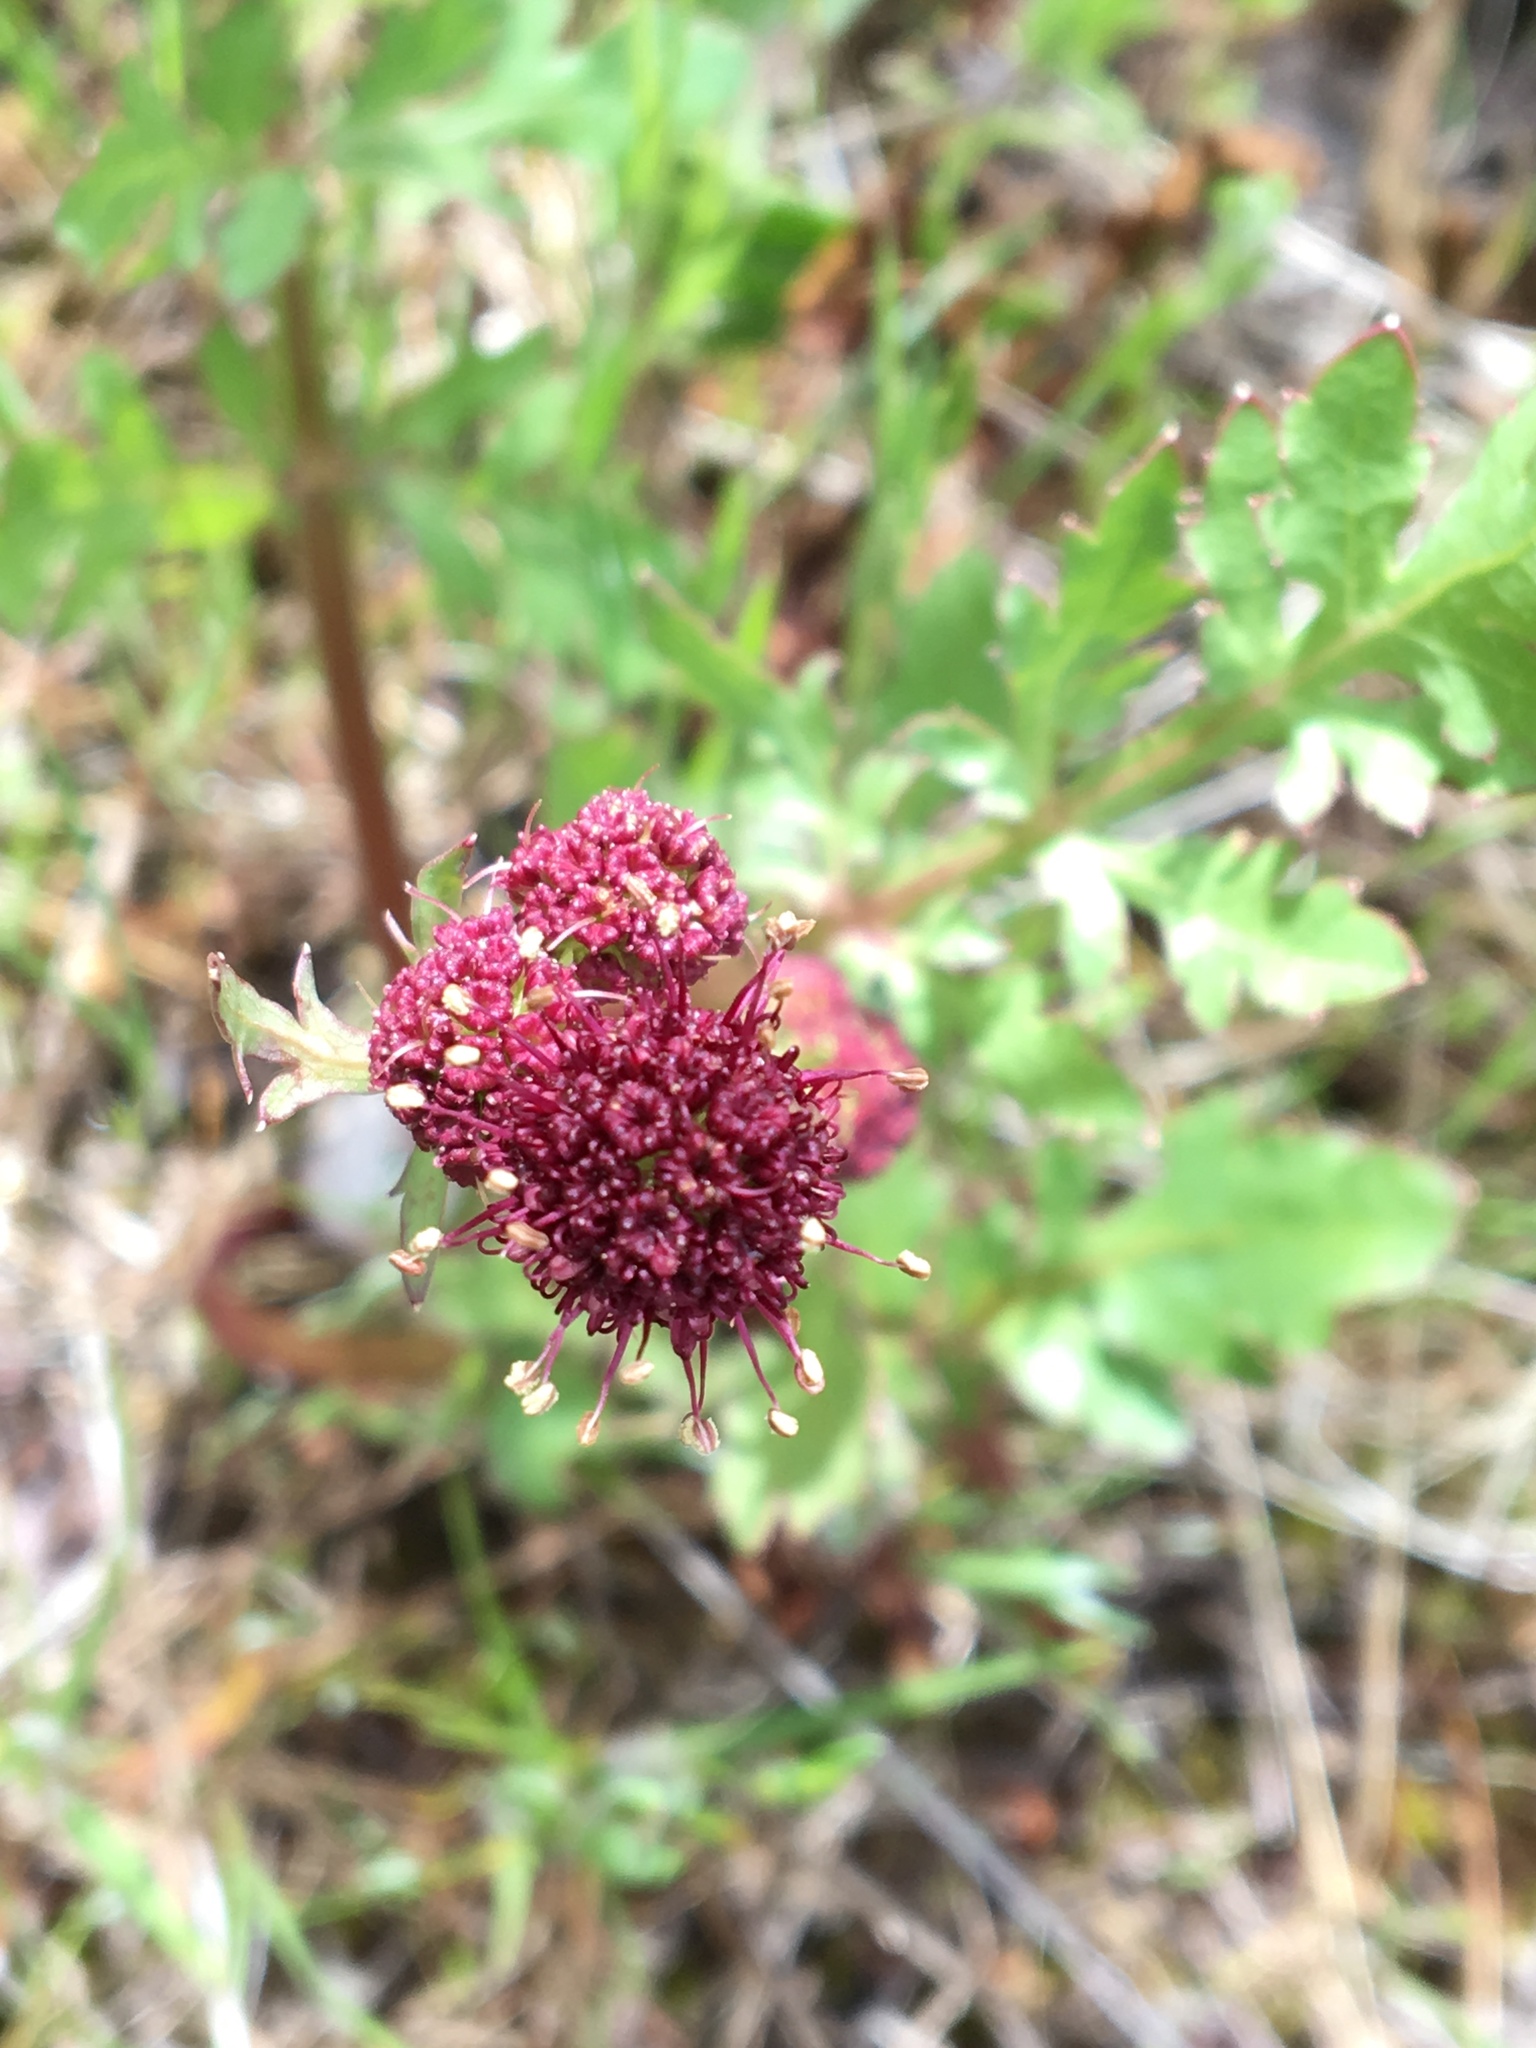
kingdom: Plantae
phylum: Tracheophyta
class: Magnoliopsida
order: Apiales
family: Apiaceae
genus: Sanicula
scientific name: Sanicula bipinnatifida
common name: Shoe-buttons
